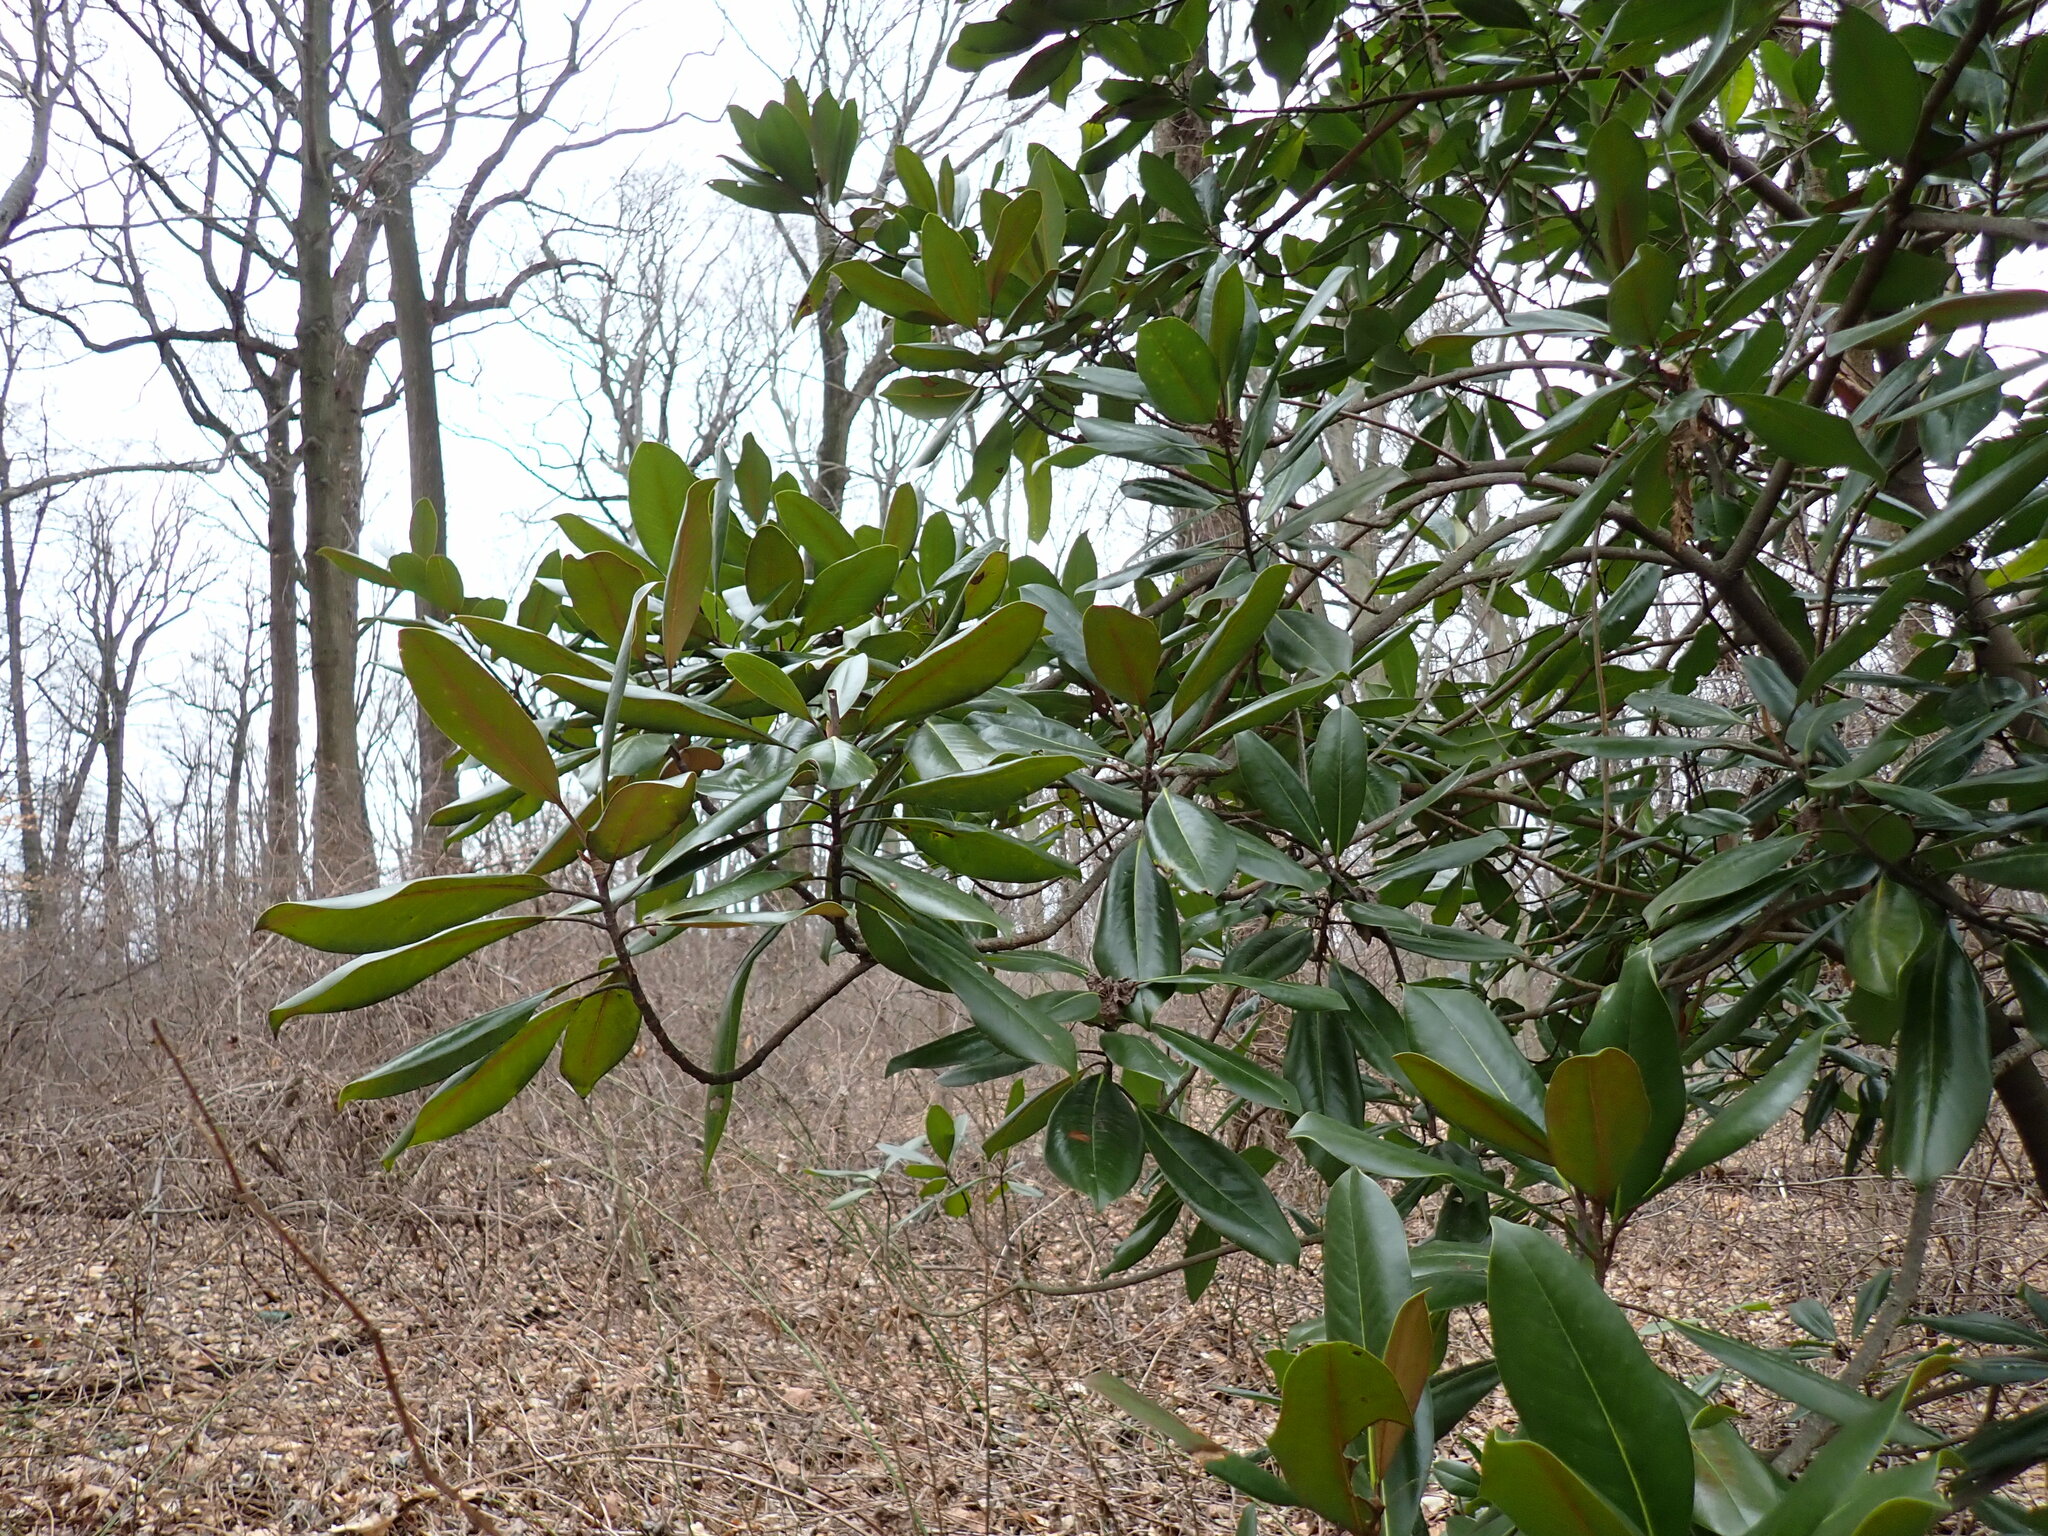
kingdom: Plantae
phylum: Tracheophyta
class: Magnoliopsida
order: Magnoliales
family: Magnoliaceae
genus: Magnolia
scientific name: Magnolia grandiflora
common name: Southern magnolia
